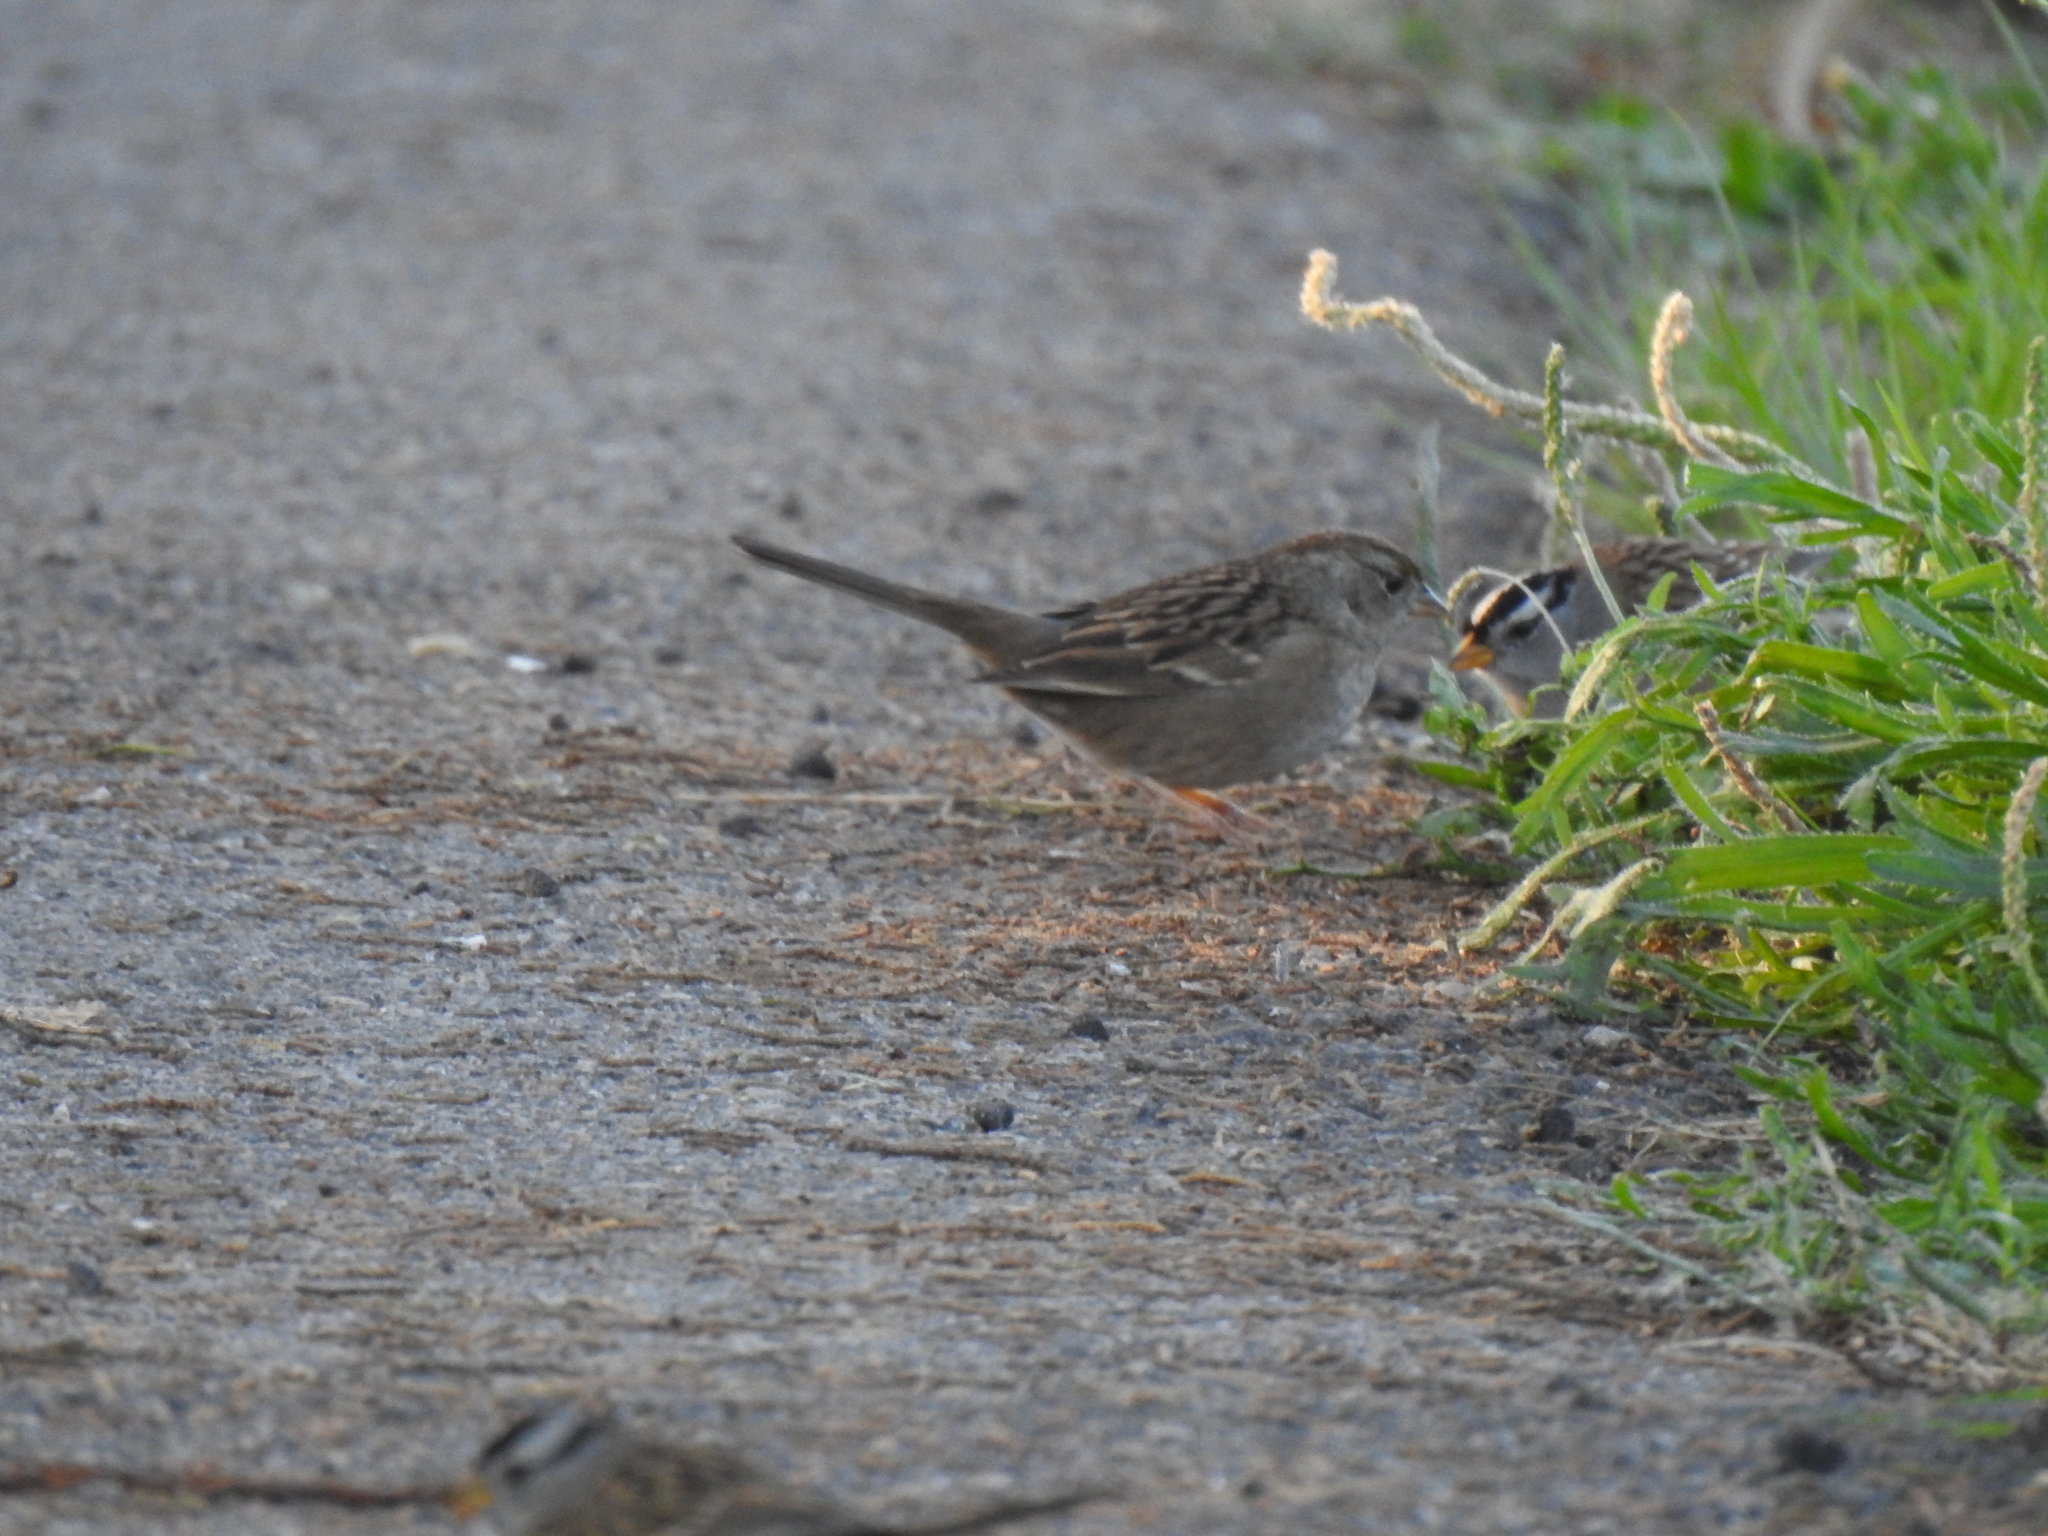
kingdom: Animalia
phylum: Chordata
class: Aves
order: Passeriformes
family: Passerellidae
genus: Zonotrichia
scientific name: Zonotrichia leucophrys
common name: White-crowned sparrow
